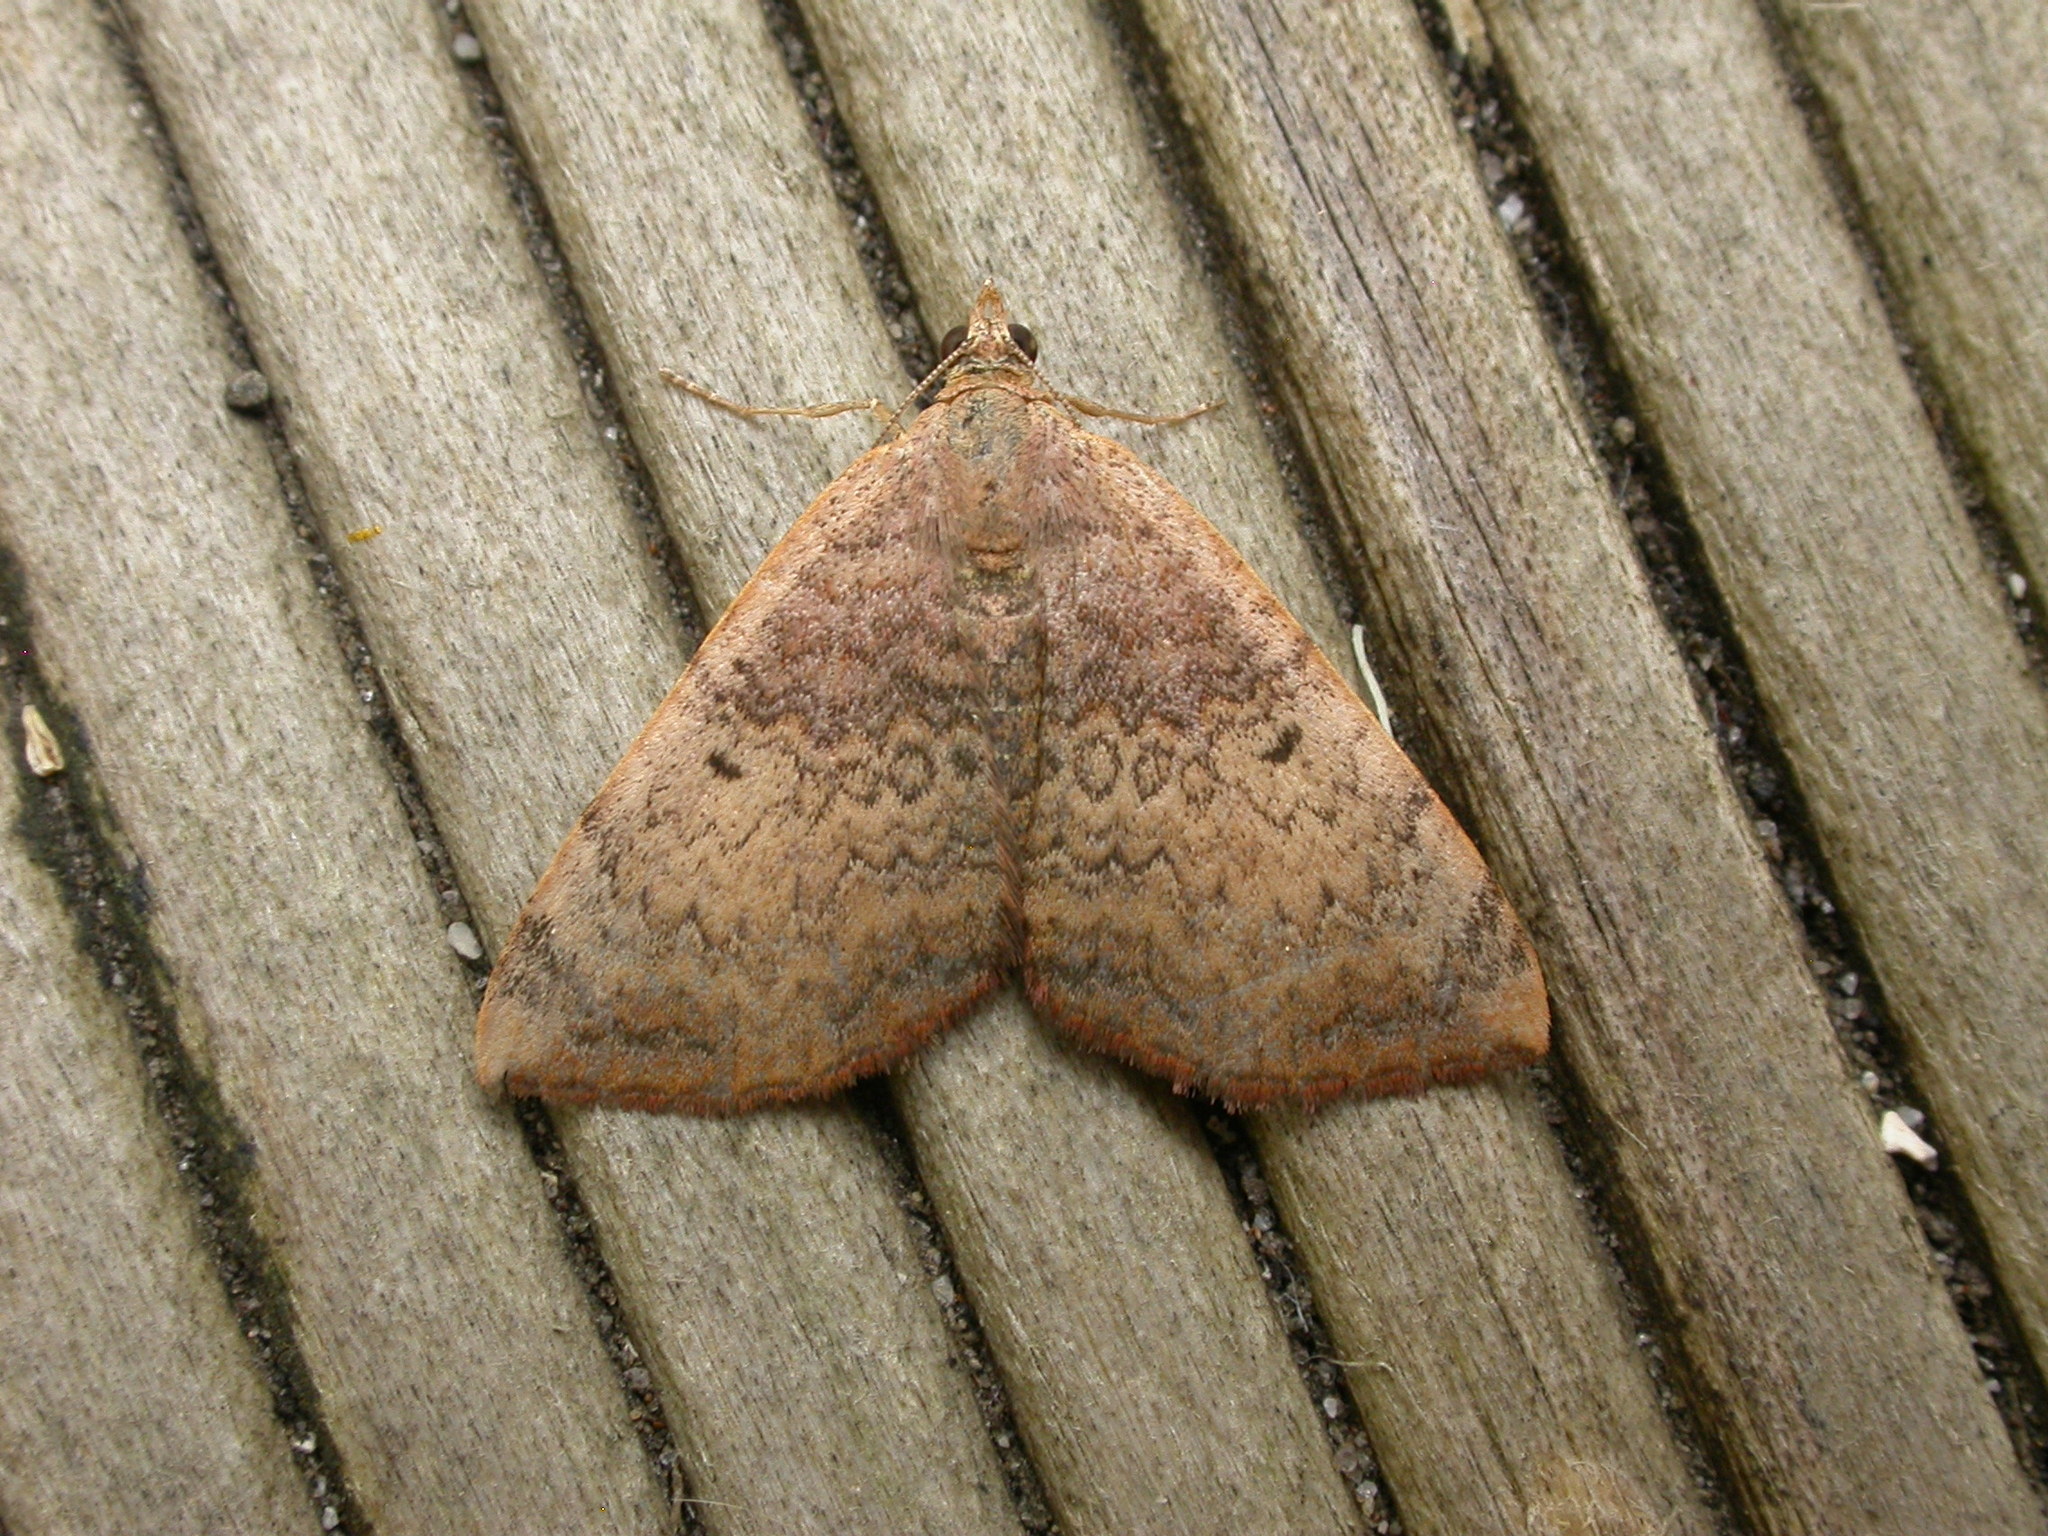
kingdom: Animalia
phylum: Arthropoda
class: Insecta
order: Lepidoptera
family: Geometridae
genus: Chrysolarentia
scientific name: Chrysolarentia mecynata
